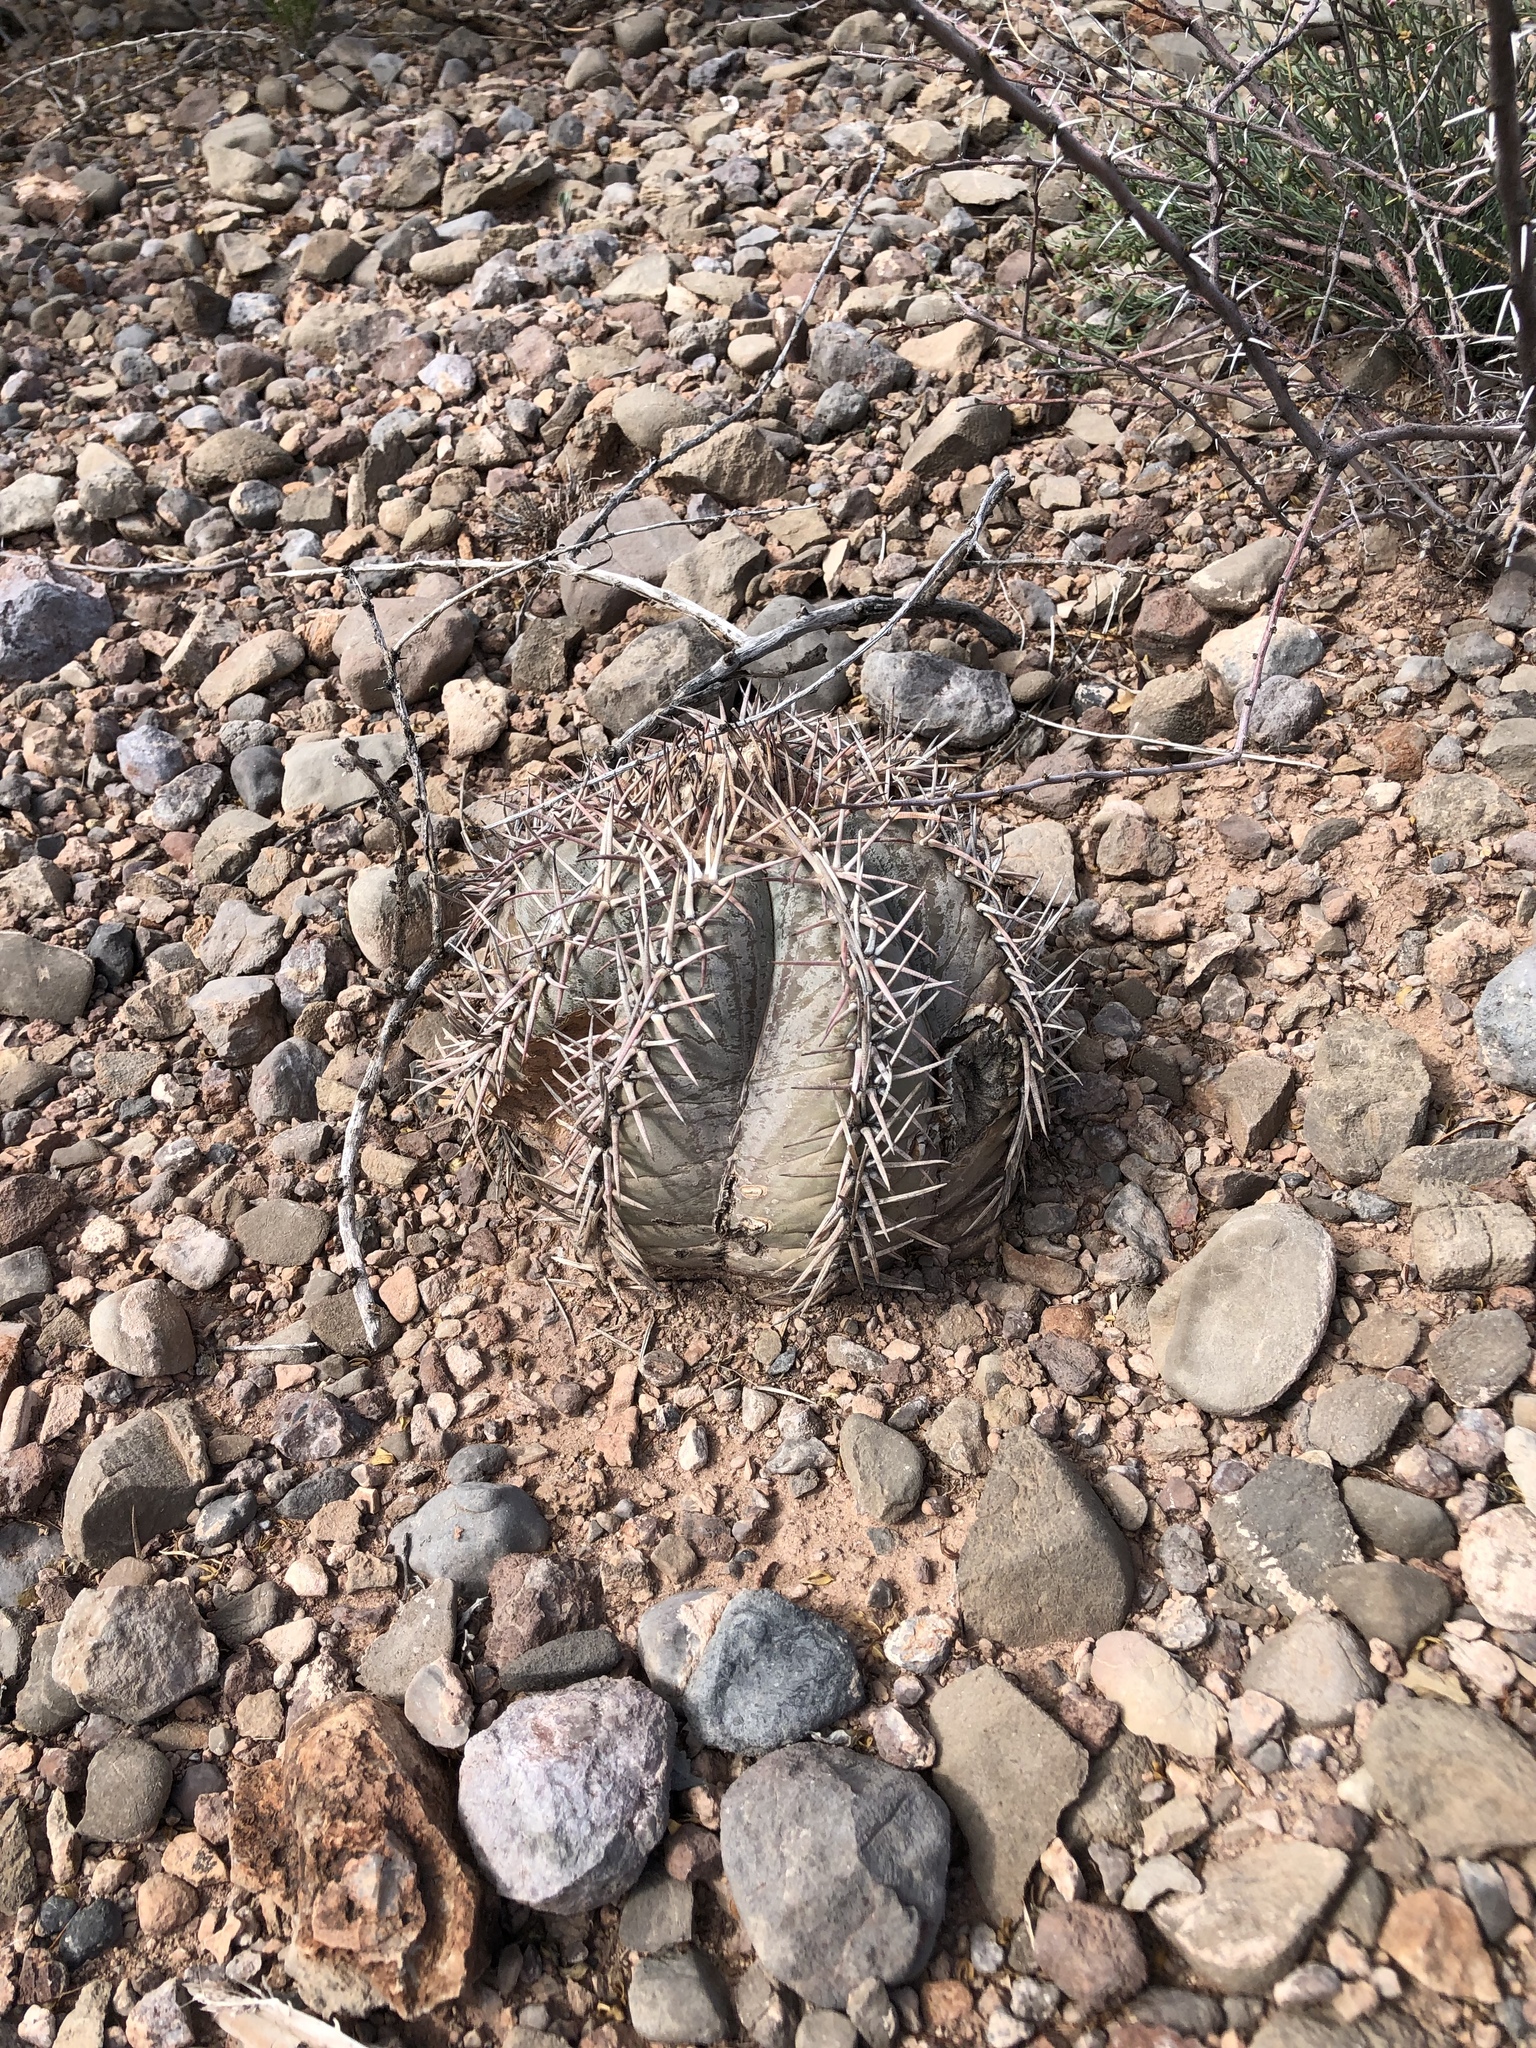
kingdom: Plantae
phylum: Tracheophyta
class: Magnoliopsida
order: Caryophyllales
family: Cactaceae
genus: Echinocactus
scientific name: Echinocactus horizonthalonius
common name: Devilshead
